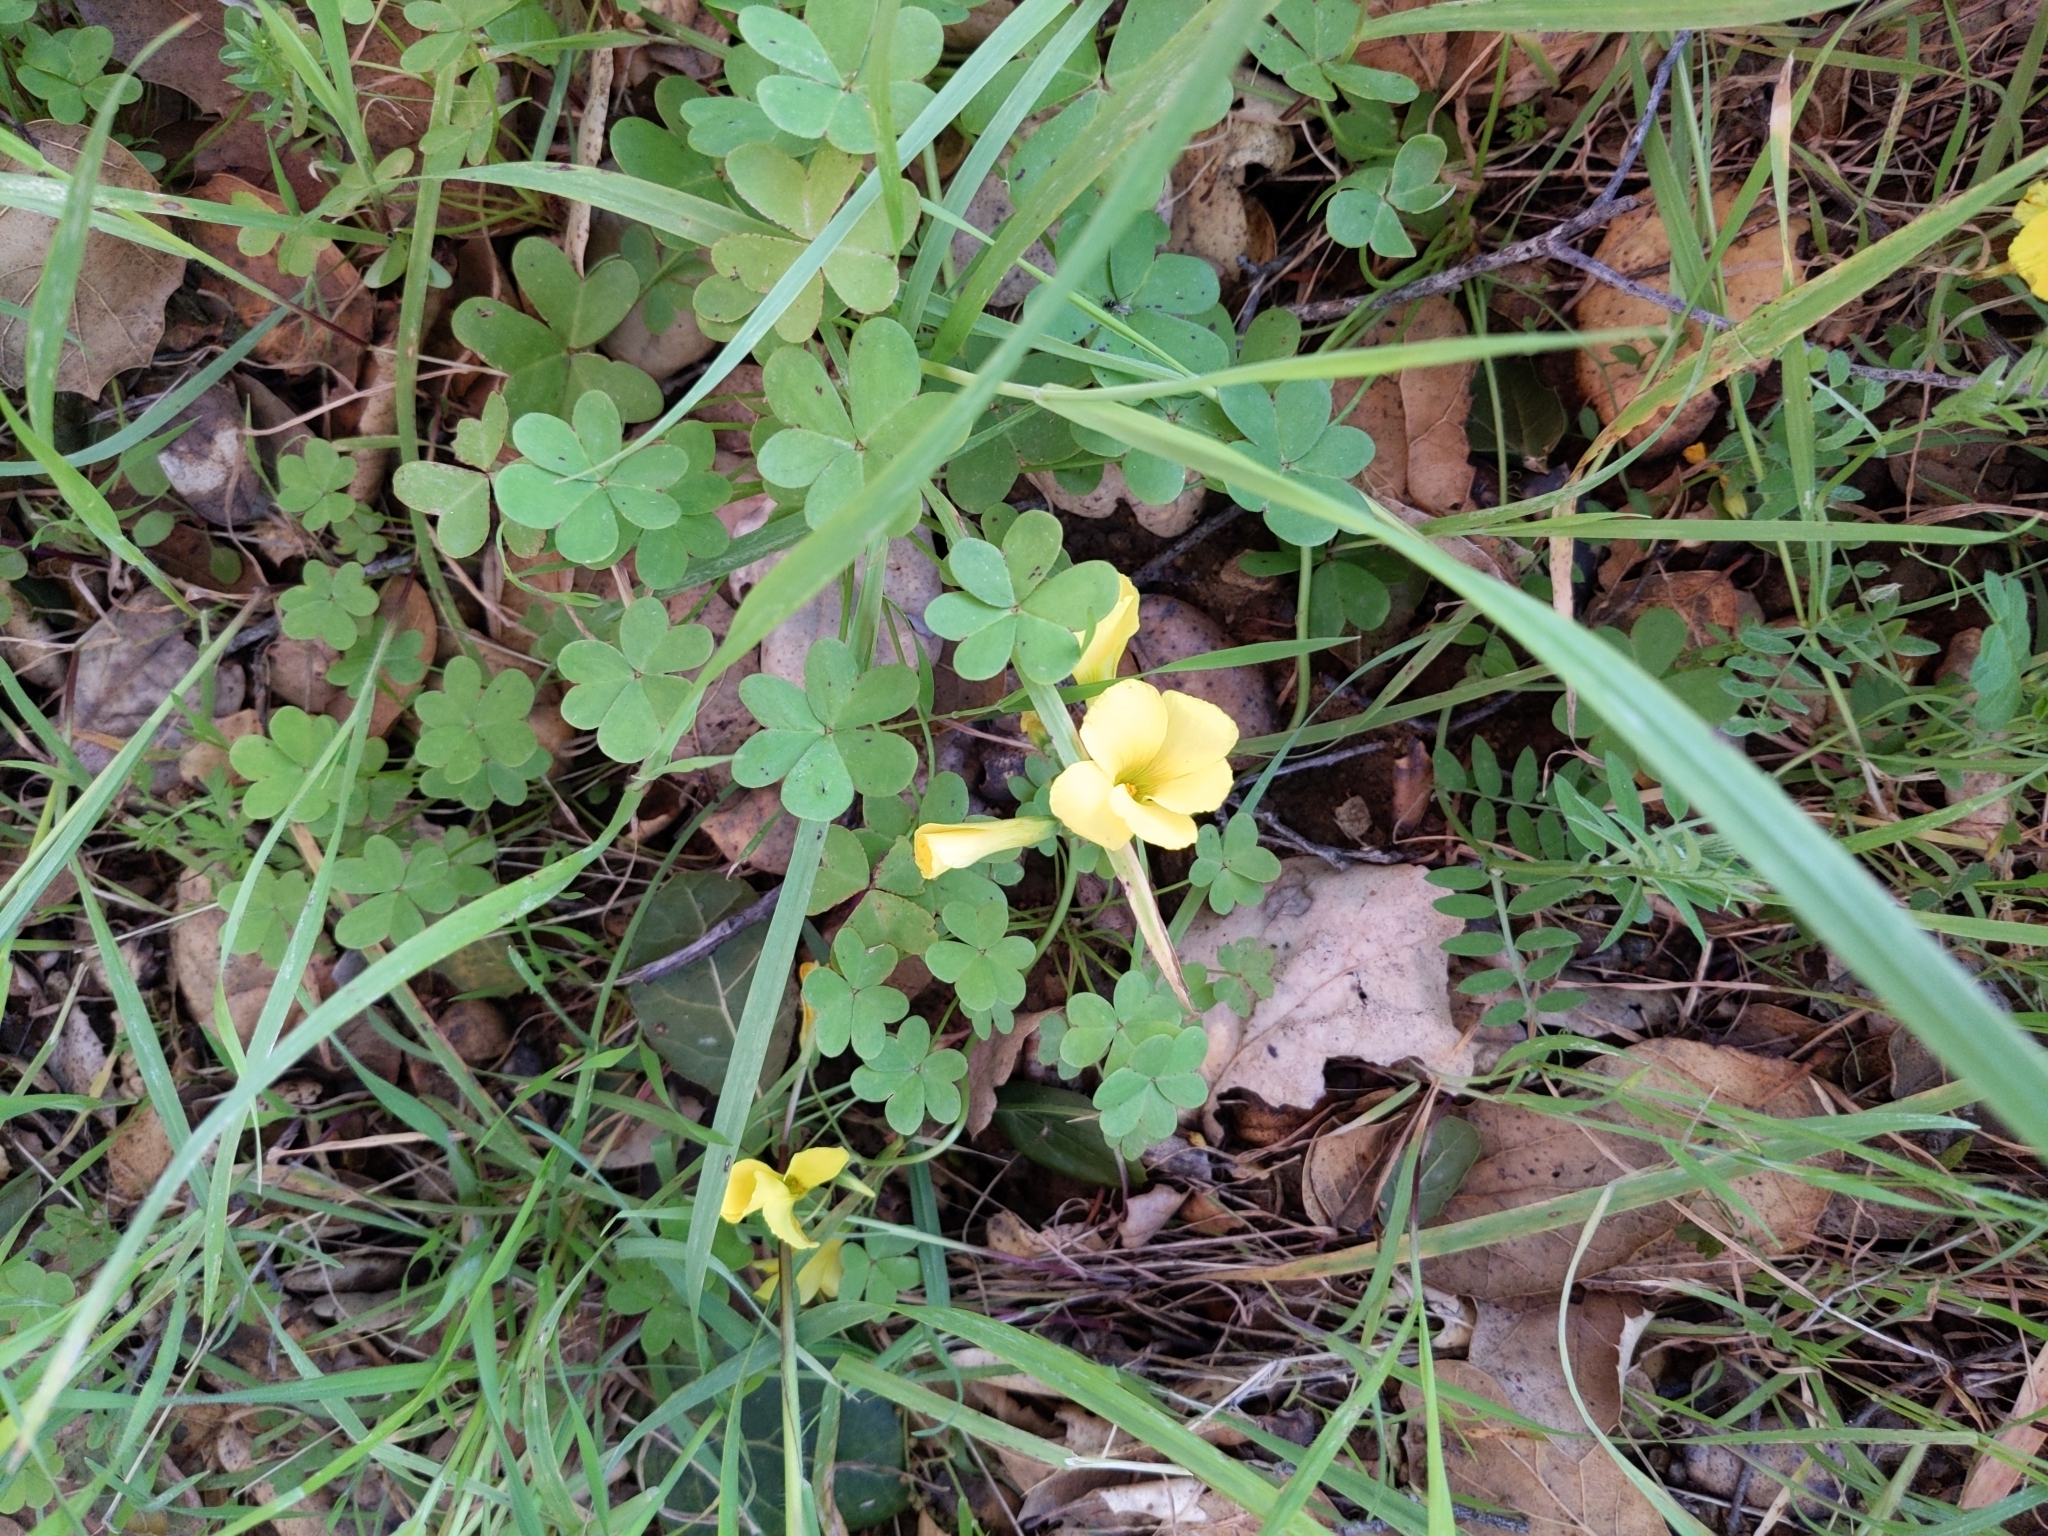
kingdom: Plantae
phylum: Tracheophyta
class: Magnoliopsida
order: Oxalidales
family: Oxalidaceae
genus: Oxalis
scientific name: Oxalis pes-caprae
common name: Bermuda-buttercup
